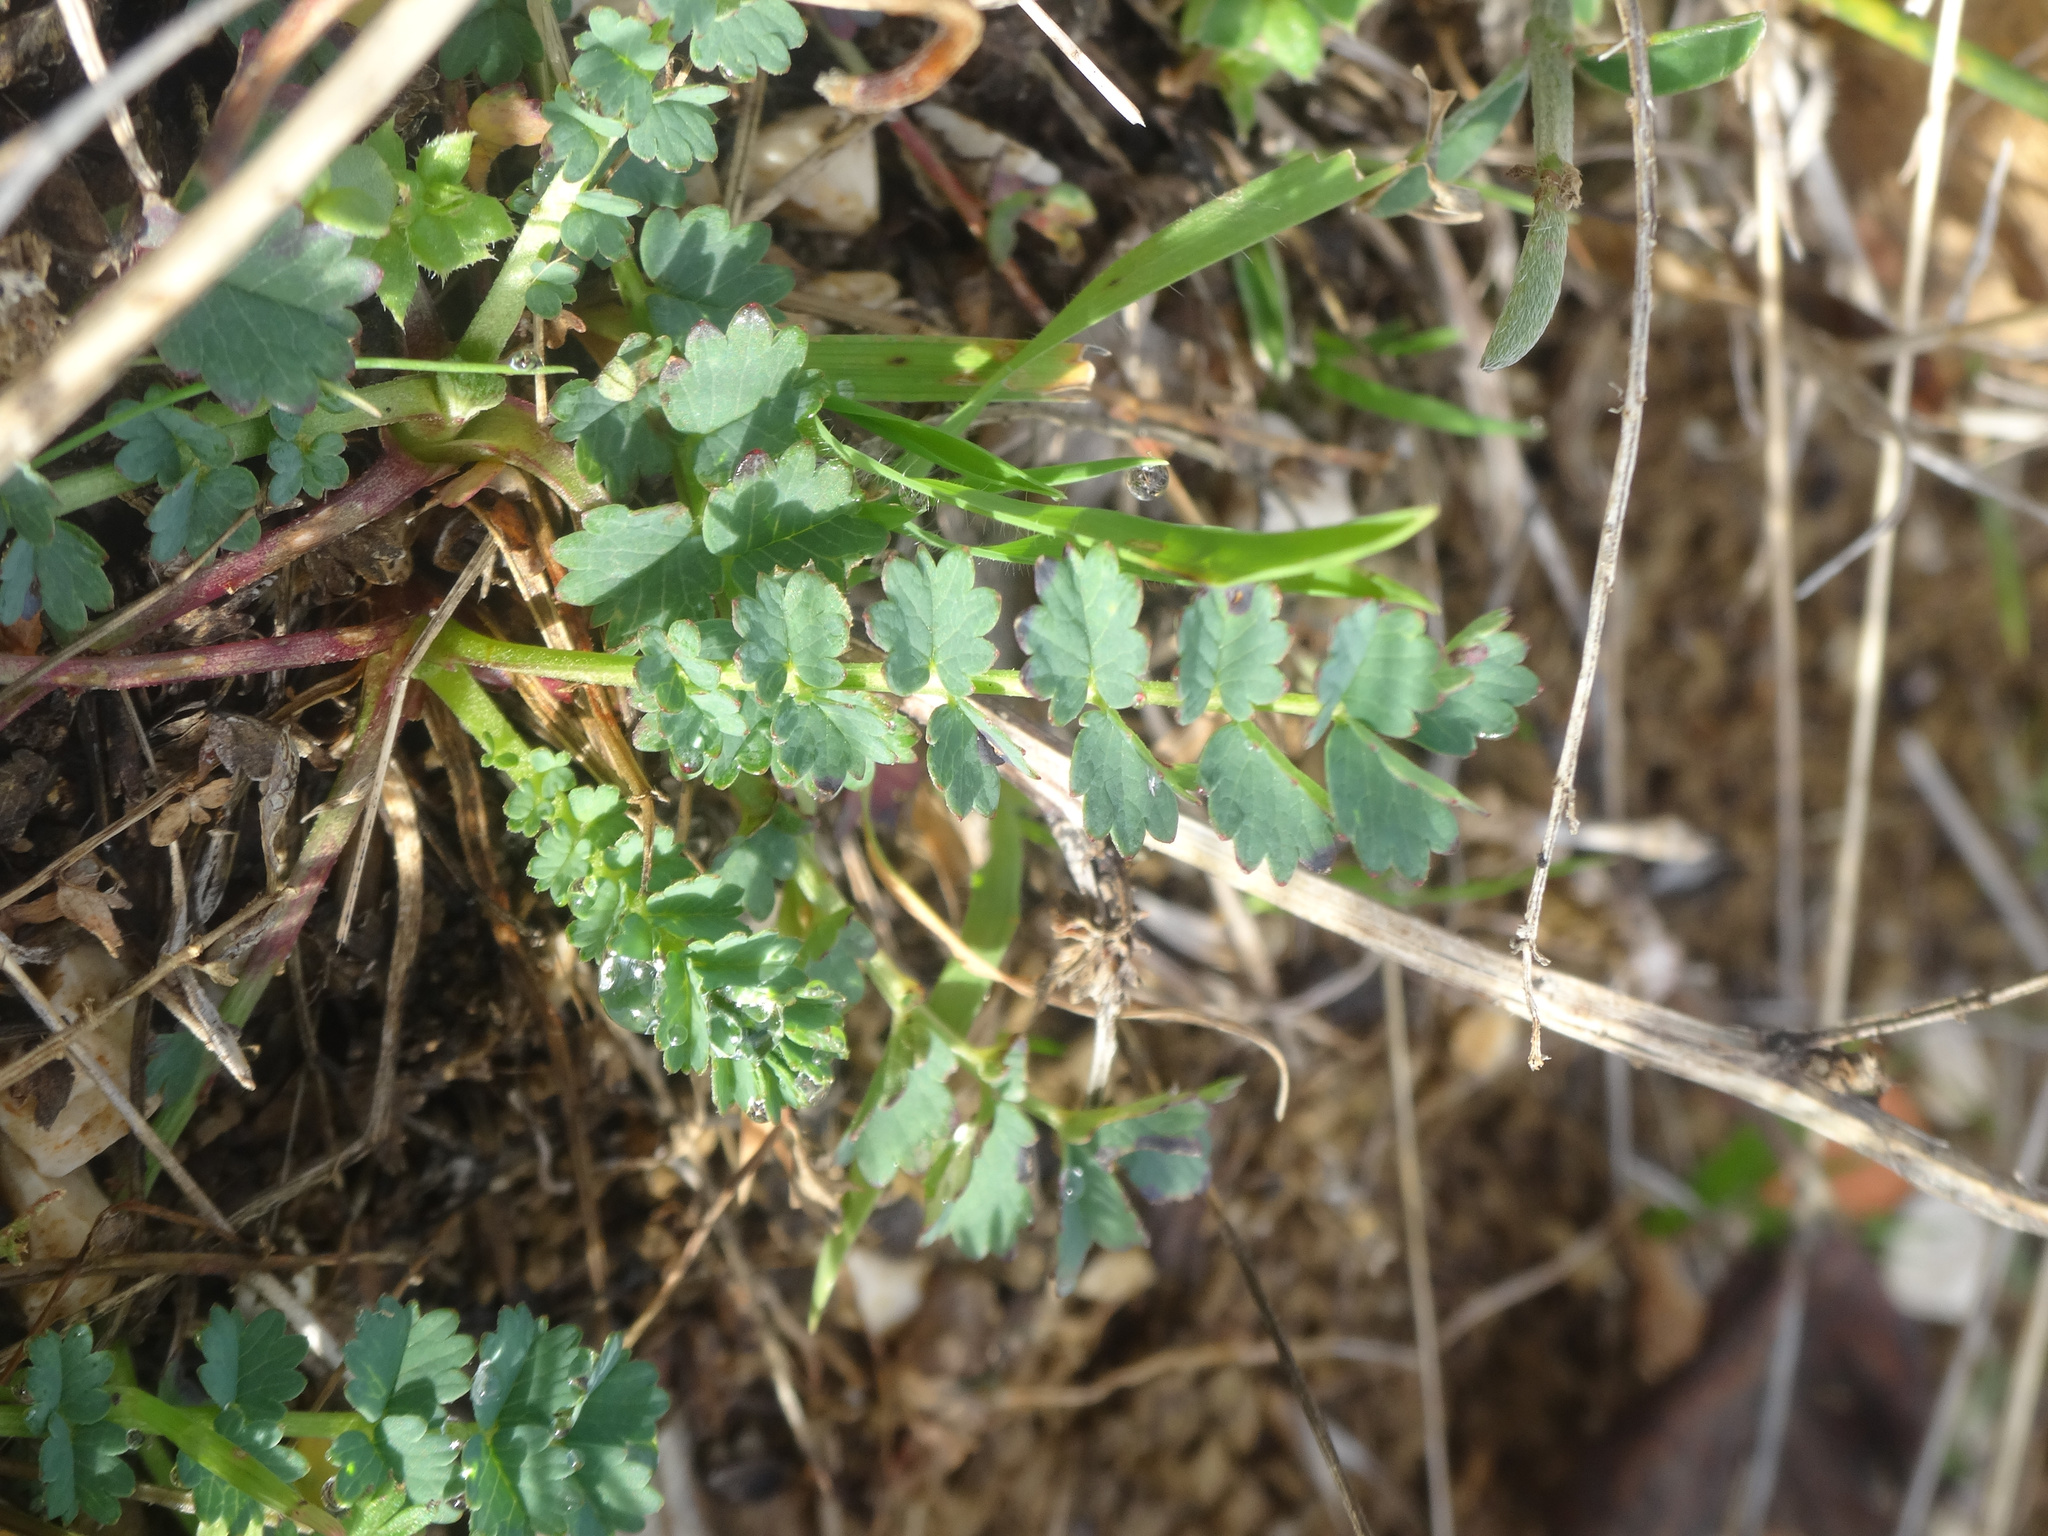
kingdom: Plantae
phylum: Tracheophyta
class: Magnoliopsida
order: Rosales
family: Rosaceae
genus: Poterium
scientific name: Poterium sanguisorba
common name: Salad burnet
